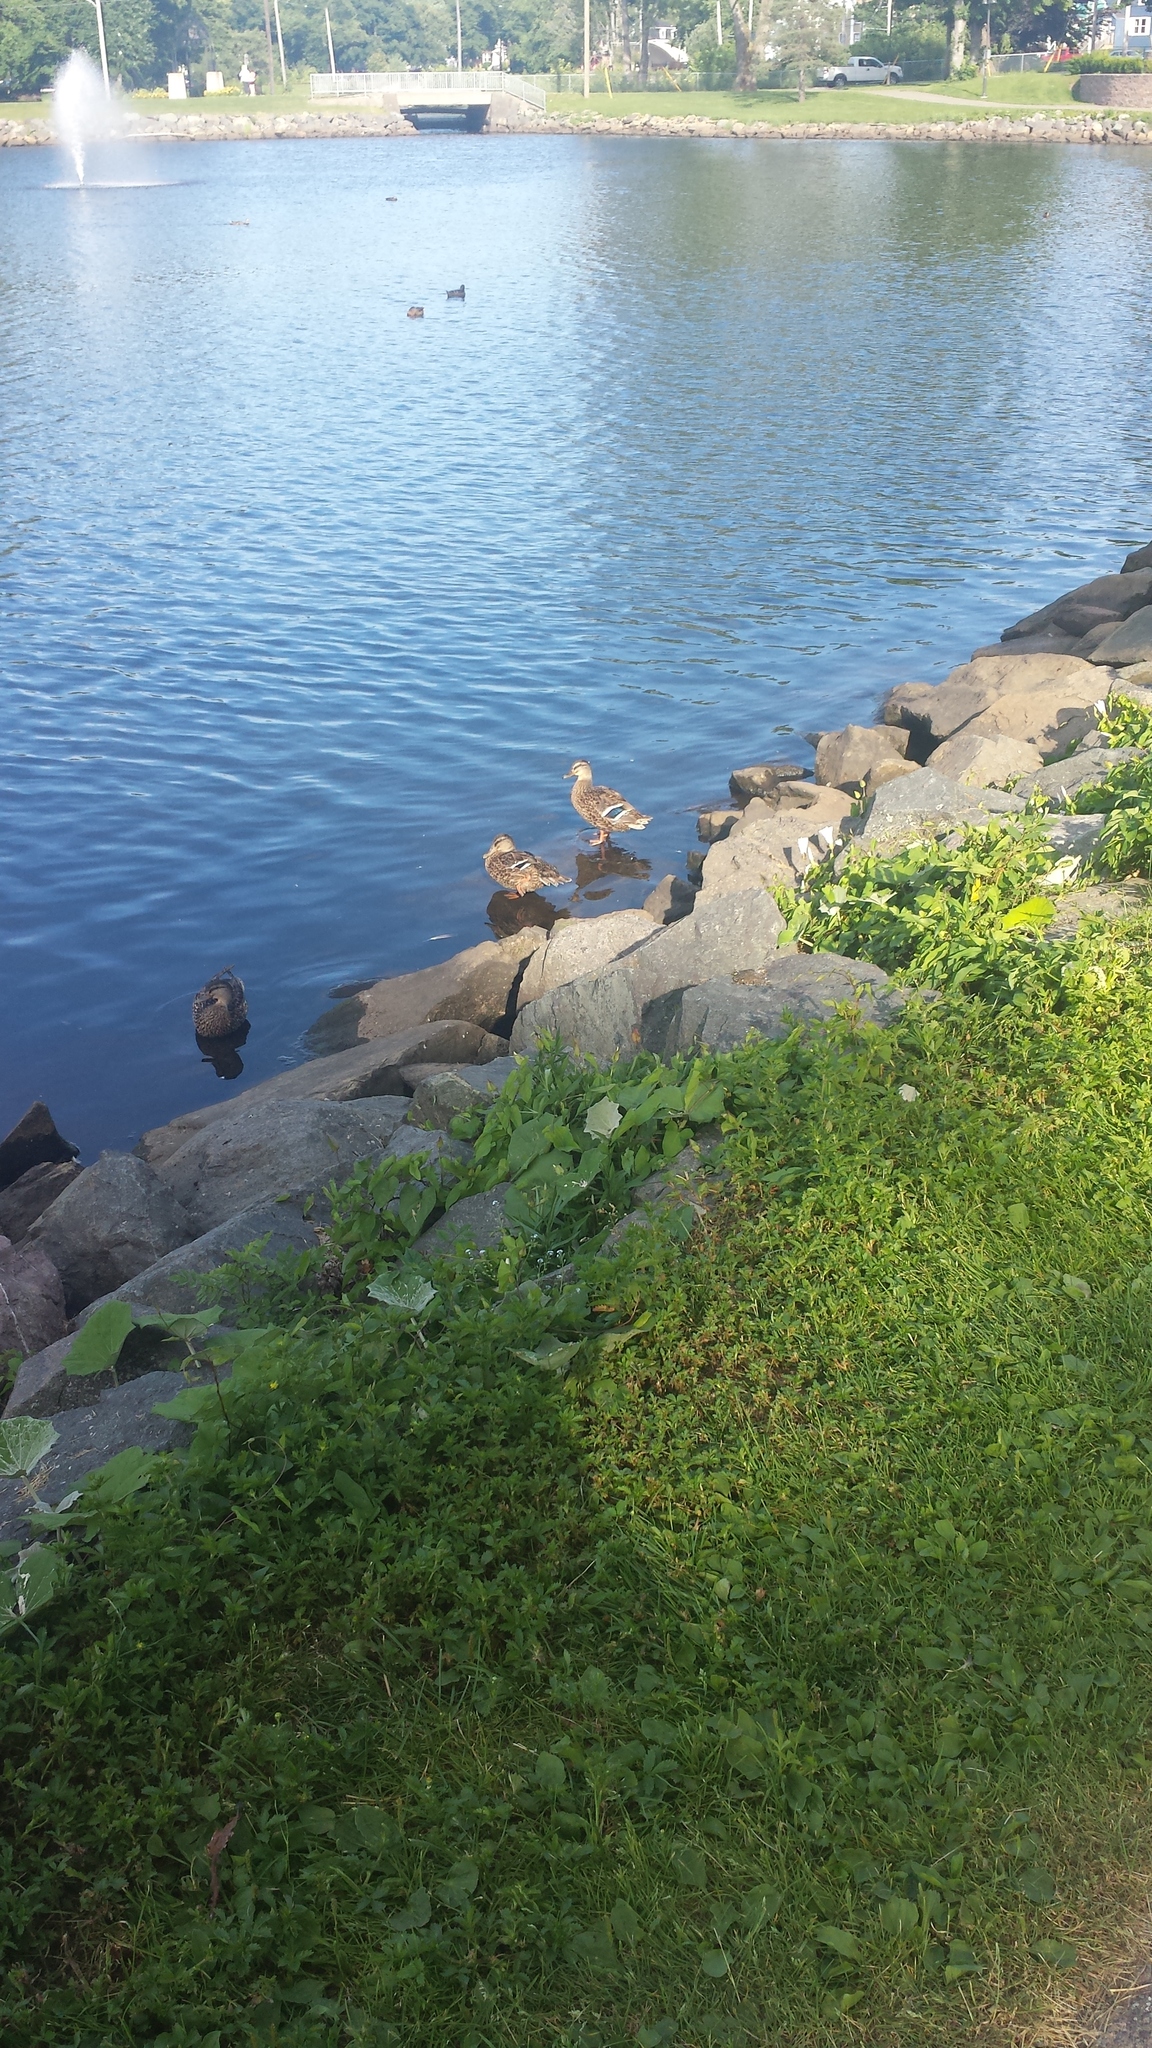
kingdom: Animalia
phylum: Chordata
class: Aves
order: Anseriformes
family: Anatidae
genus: Anas
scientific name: Anas platyrhynchos
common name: Mallard
